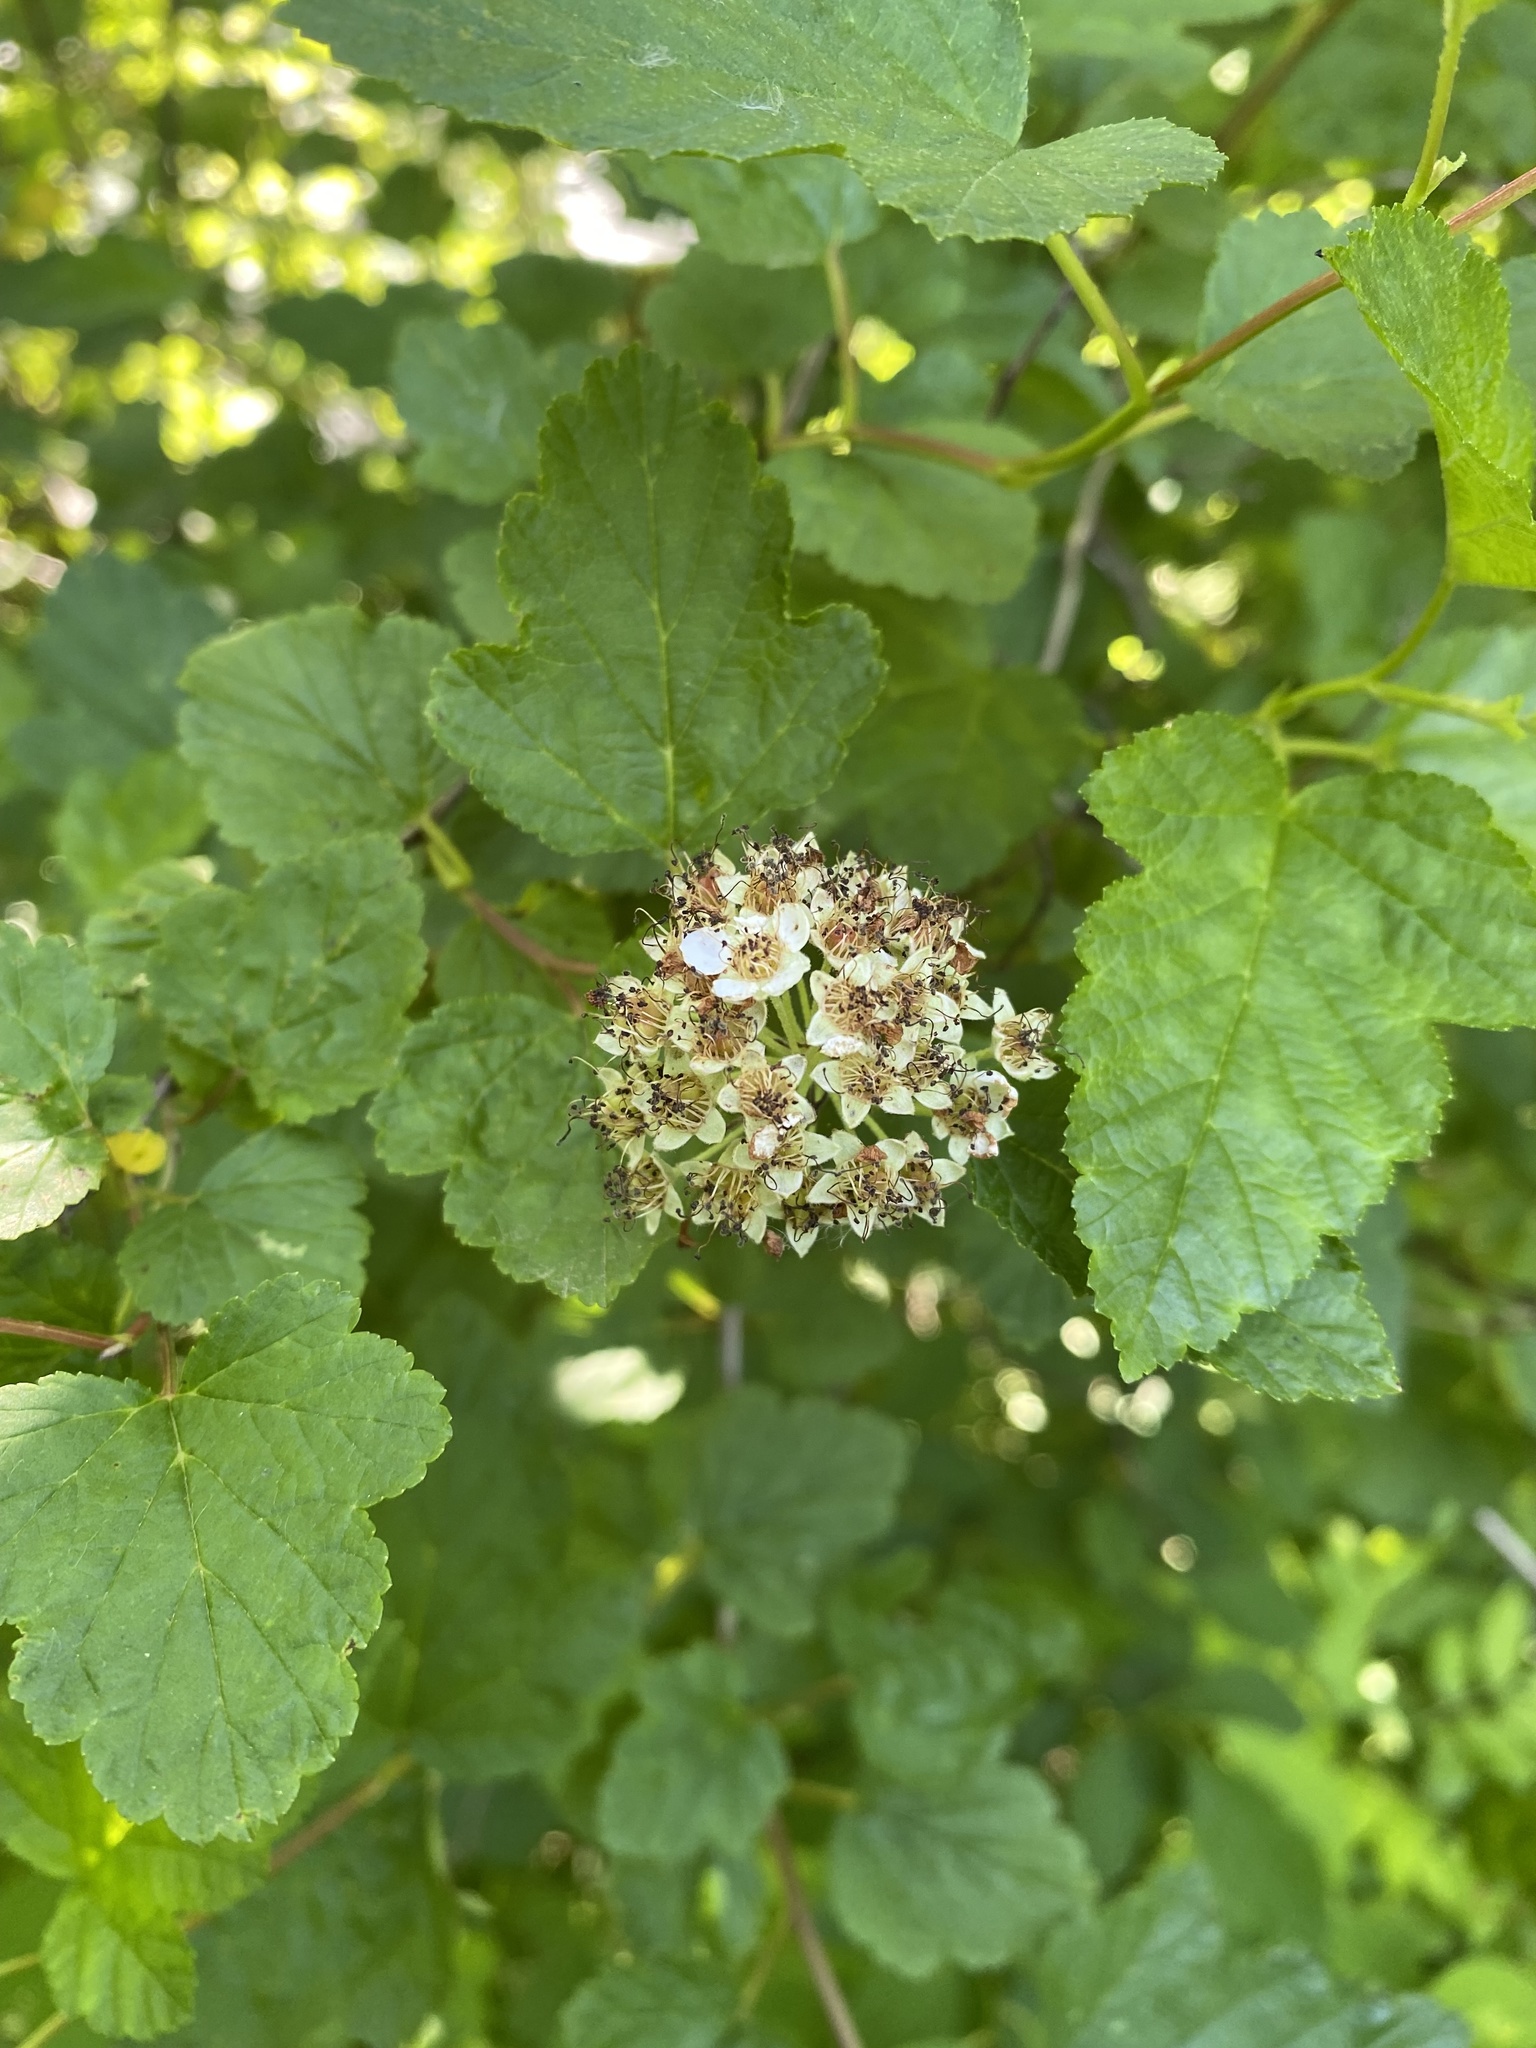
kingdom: Plantae
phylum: Tracheophyta
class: Magnoliopsida
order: Rosales
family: Rosaceae
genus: Physocarpus
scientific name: Physocarpus opulifolius
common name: Ninebark
